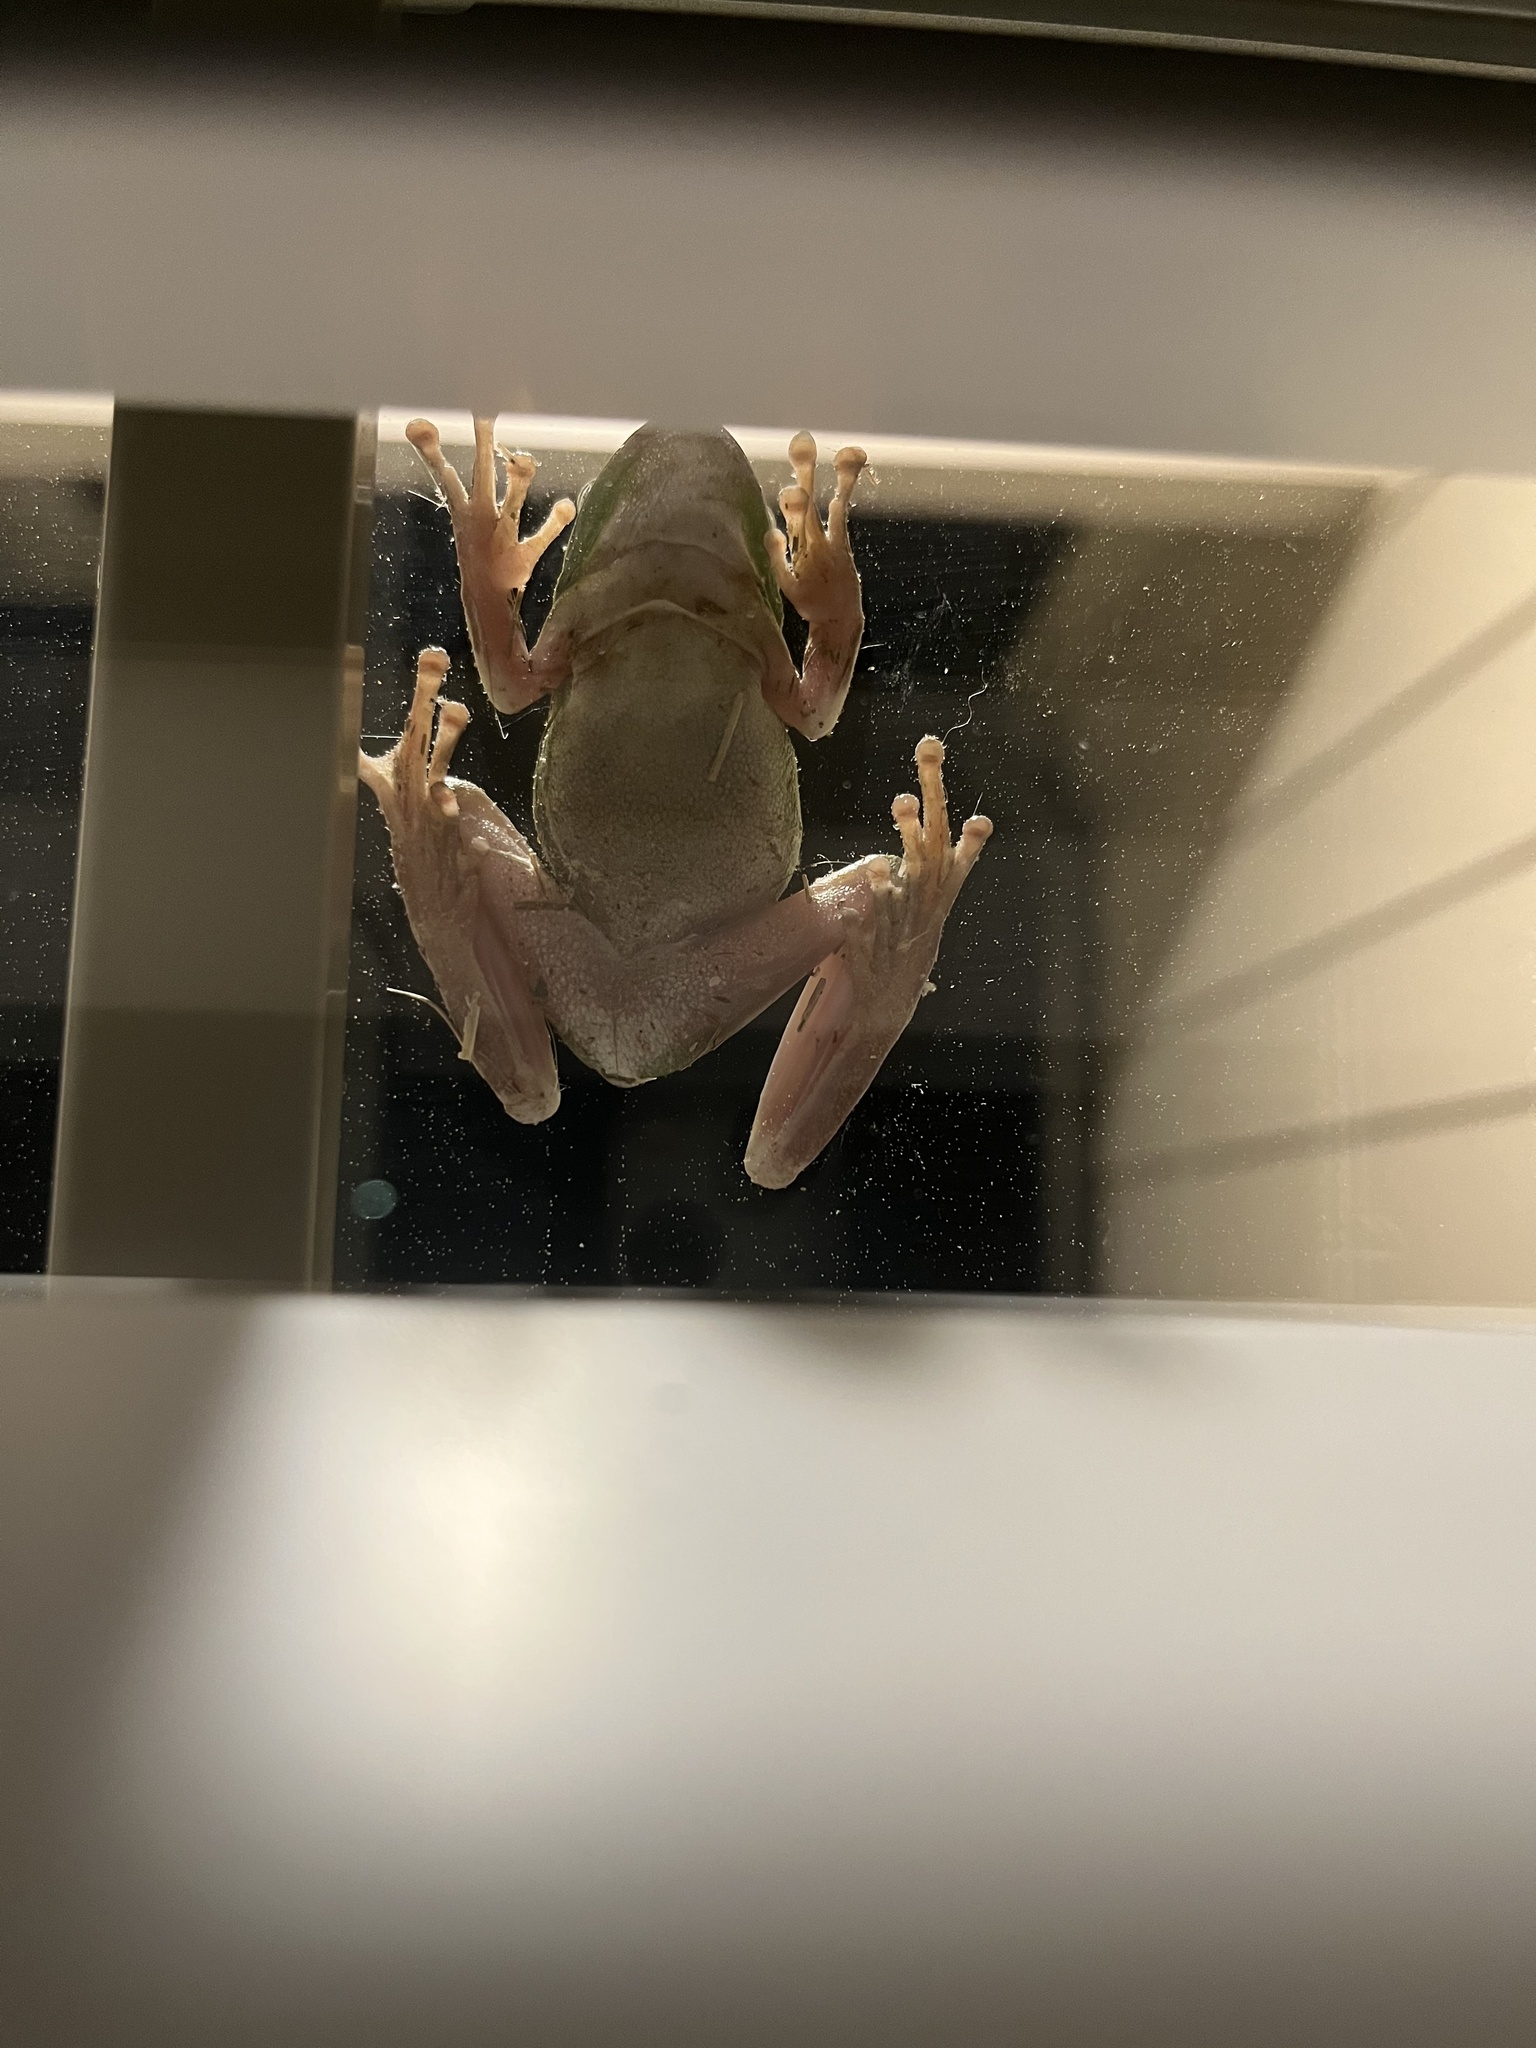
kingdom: Animalia
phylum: Chordata
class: Amphibia
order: Anura
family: Hylidae
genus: Dryophytes
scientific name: Dryophytes cinereus
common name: Green treefrog
